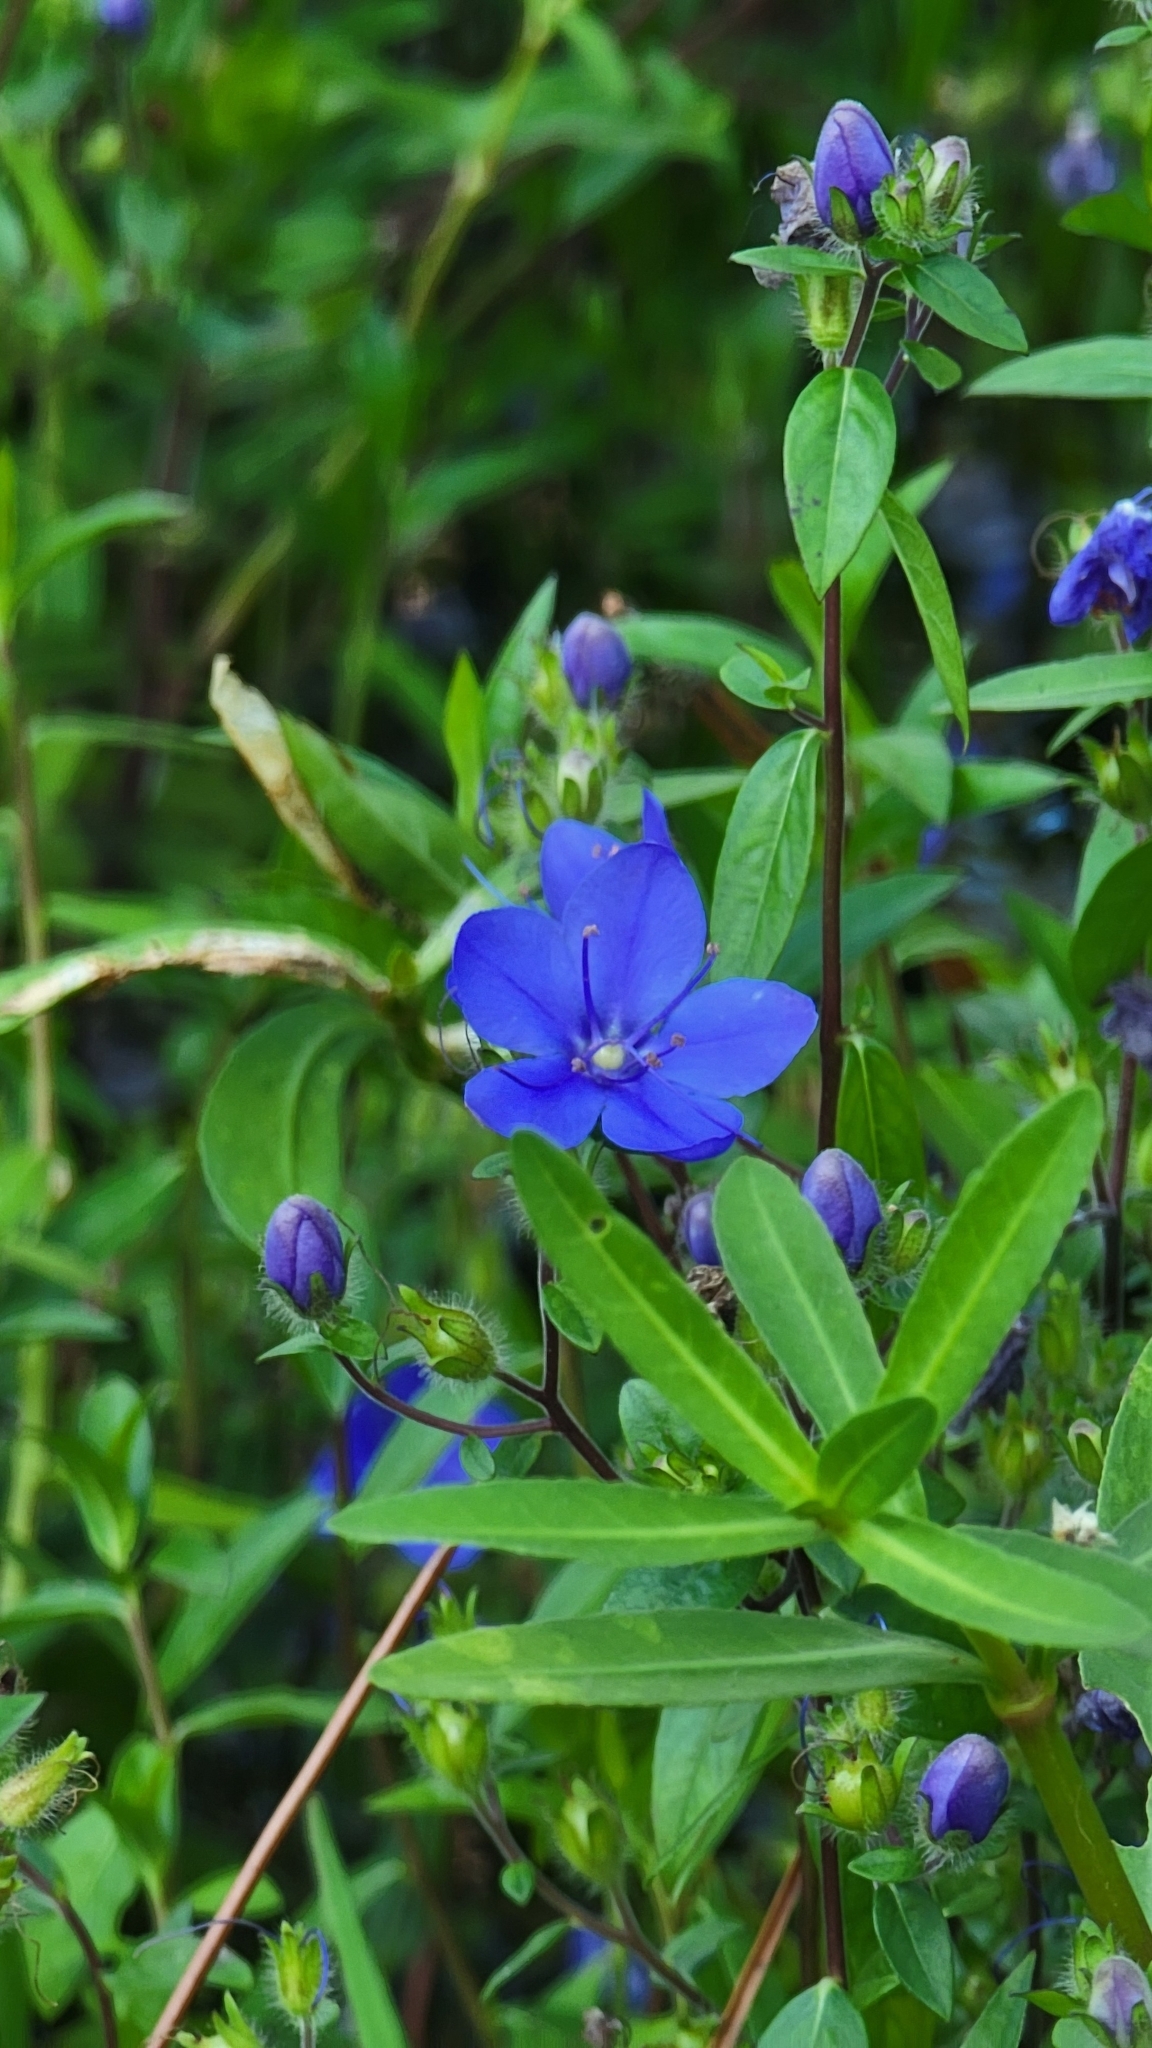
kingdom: Plantae
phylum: Tracheophyta
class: Magnoliopsida
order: Solanales
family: Hydroleaceae
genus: Hydrolea
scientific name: Hydrolea corymbosa
